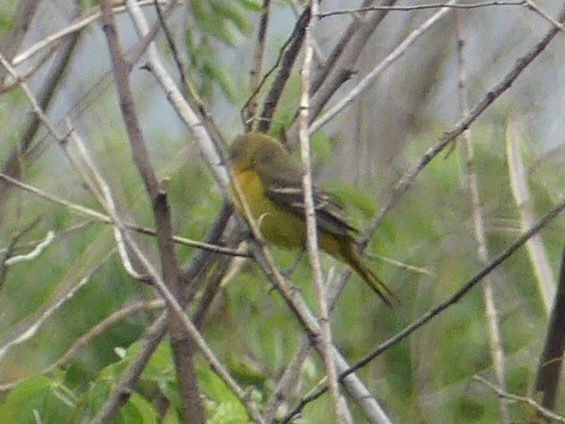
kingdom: Animalia
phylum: Chordata
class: Aves
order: Passeriformes
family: Icteridae
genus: Icterus
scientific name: Icterus spurius
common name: Orchard oriole
